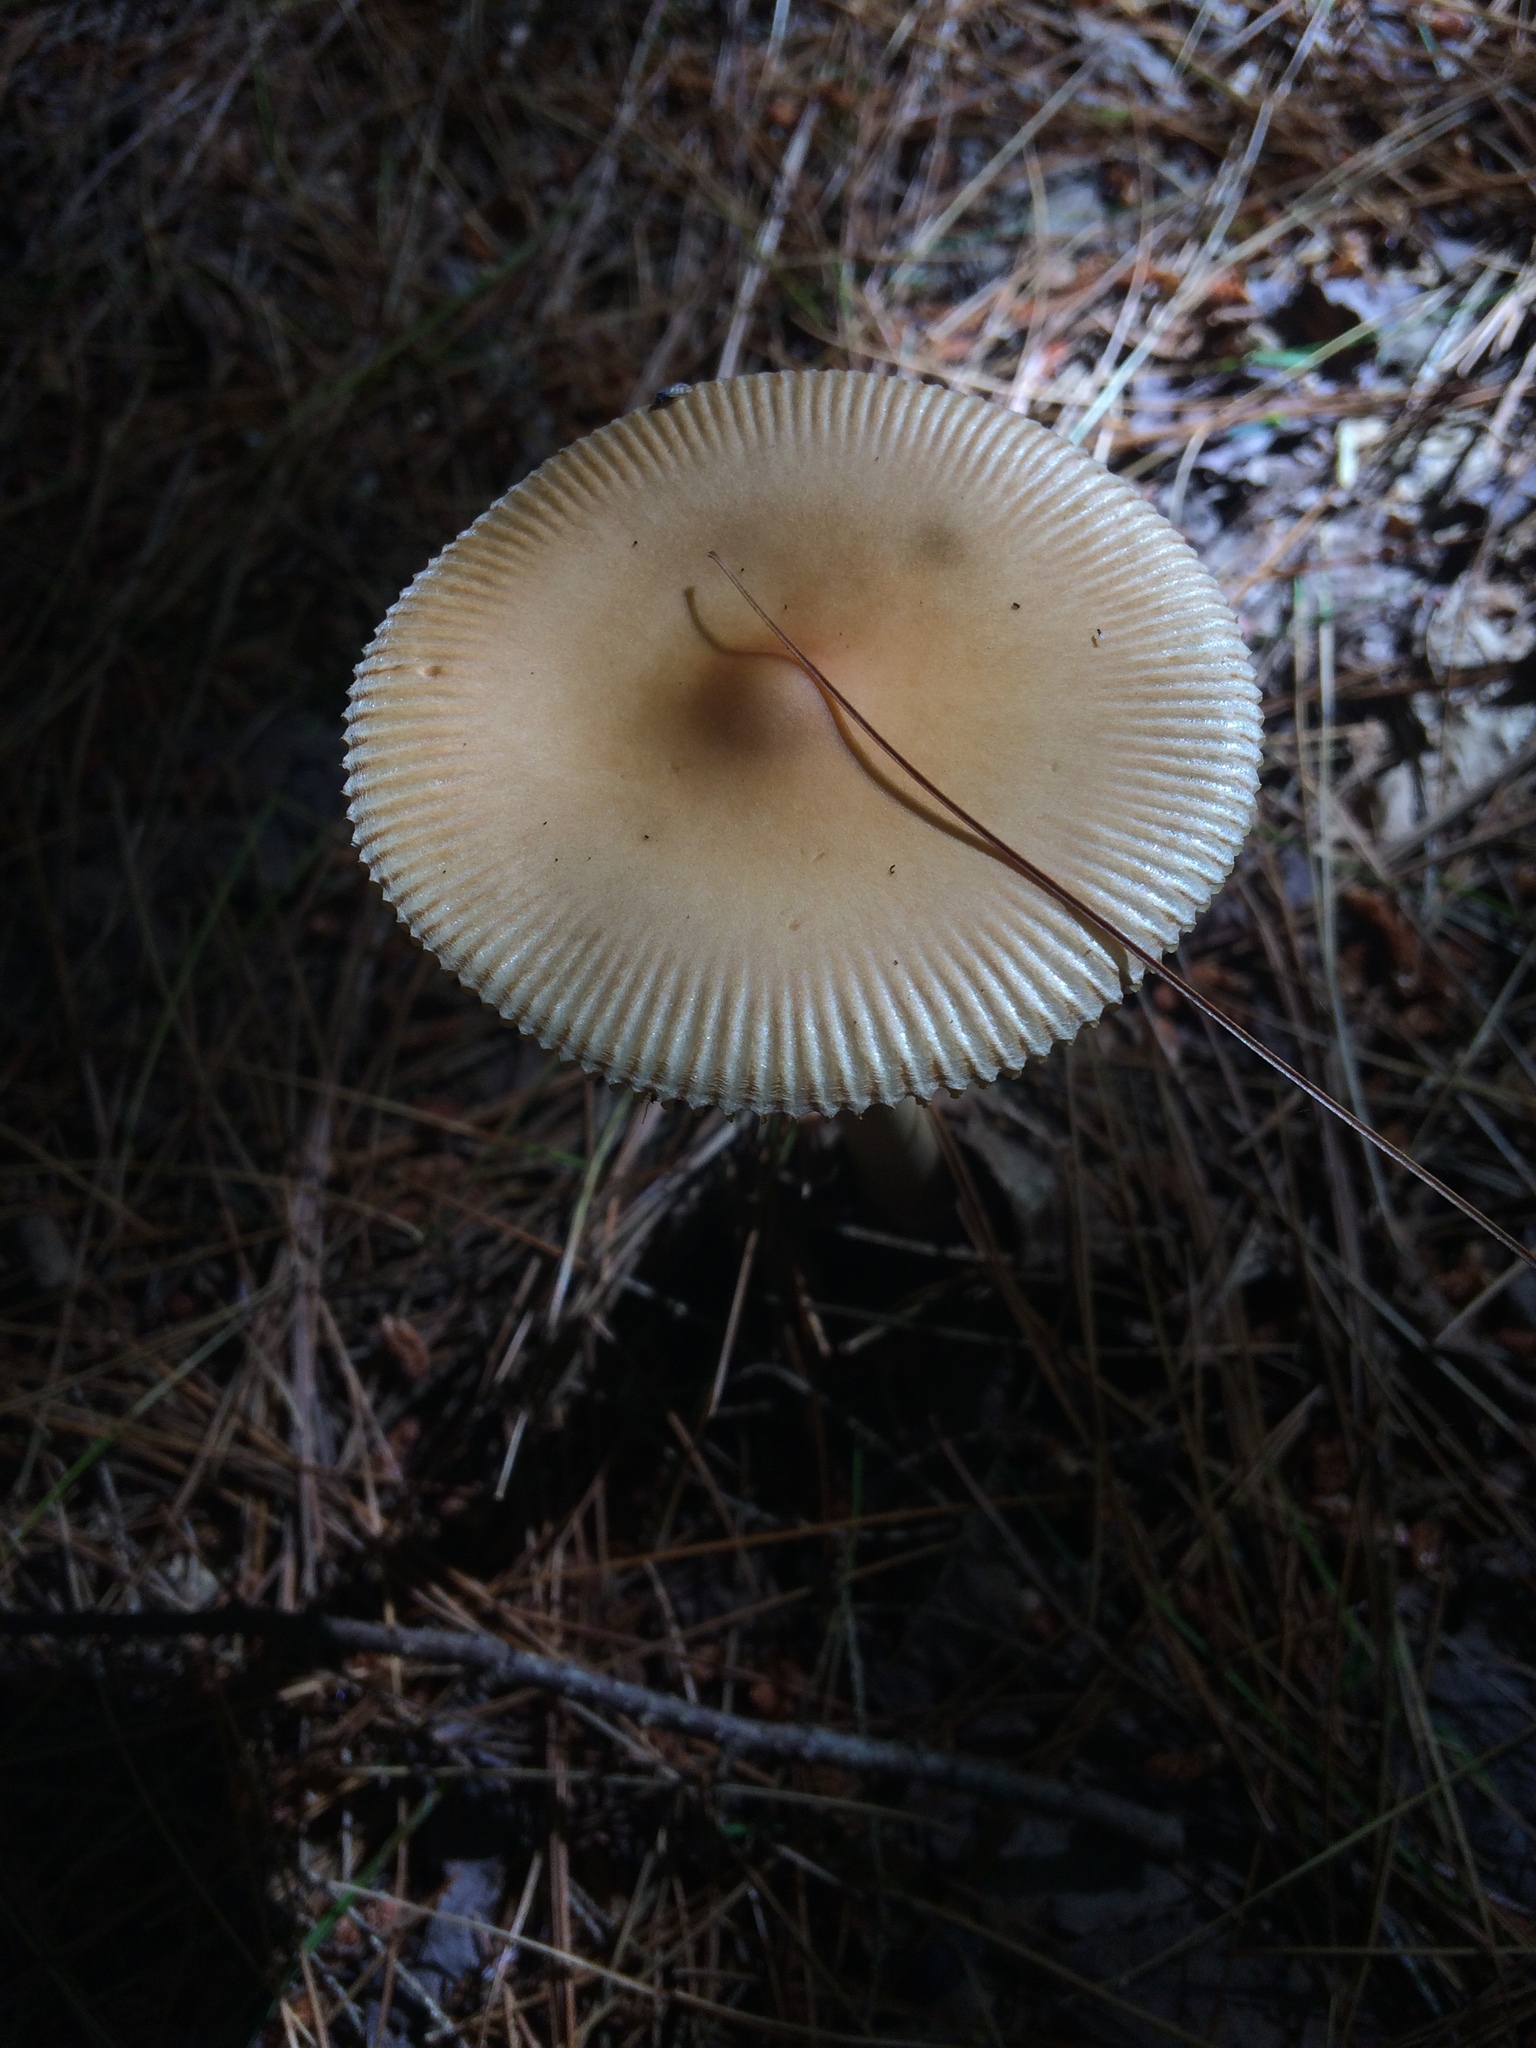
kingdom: Fungi
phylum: Basidiomycota
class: Agaricomycetes
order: Agaricales
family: Amanitaceae
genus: Amanita
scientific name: Amanita
